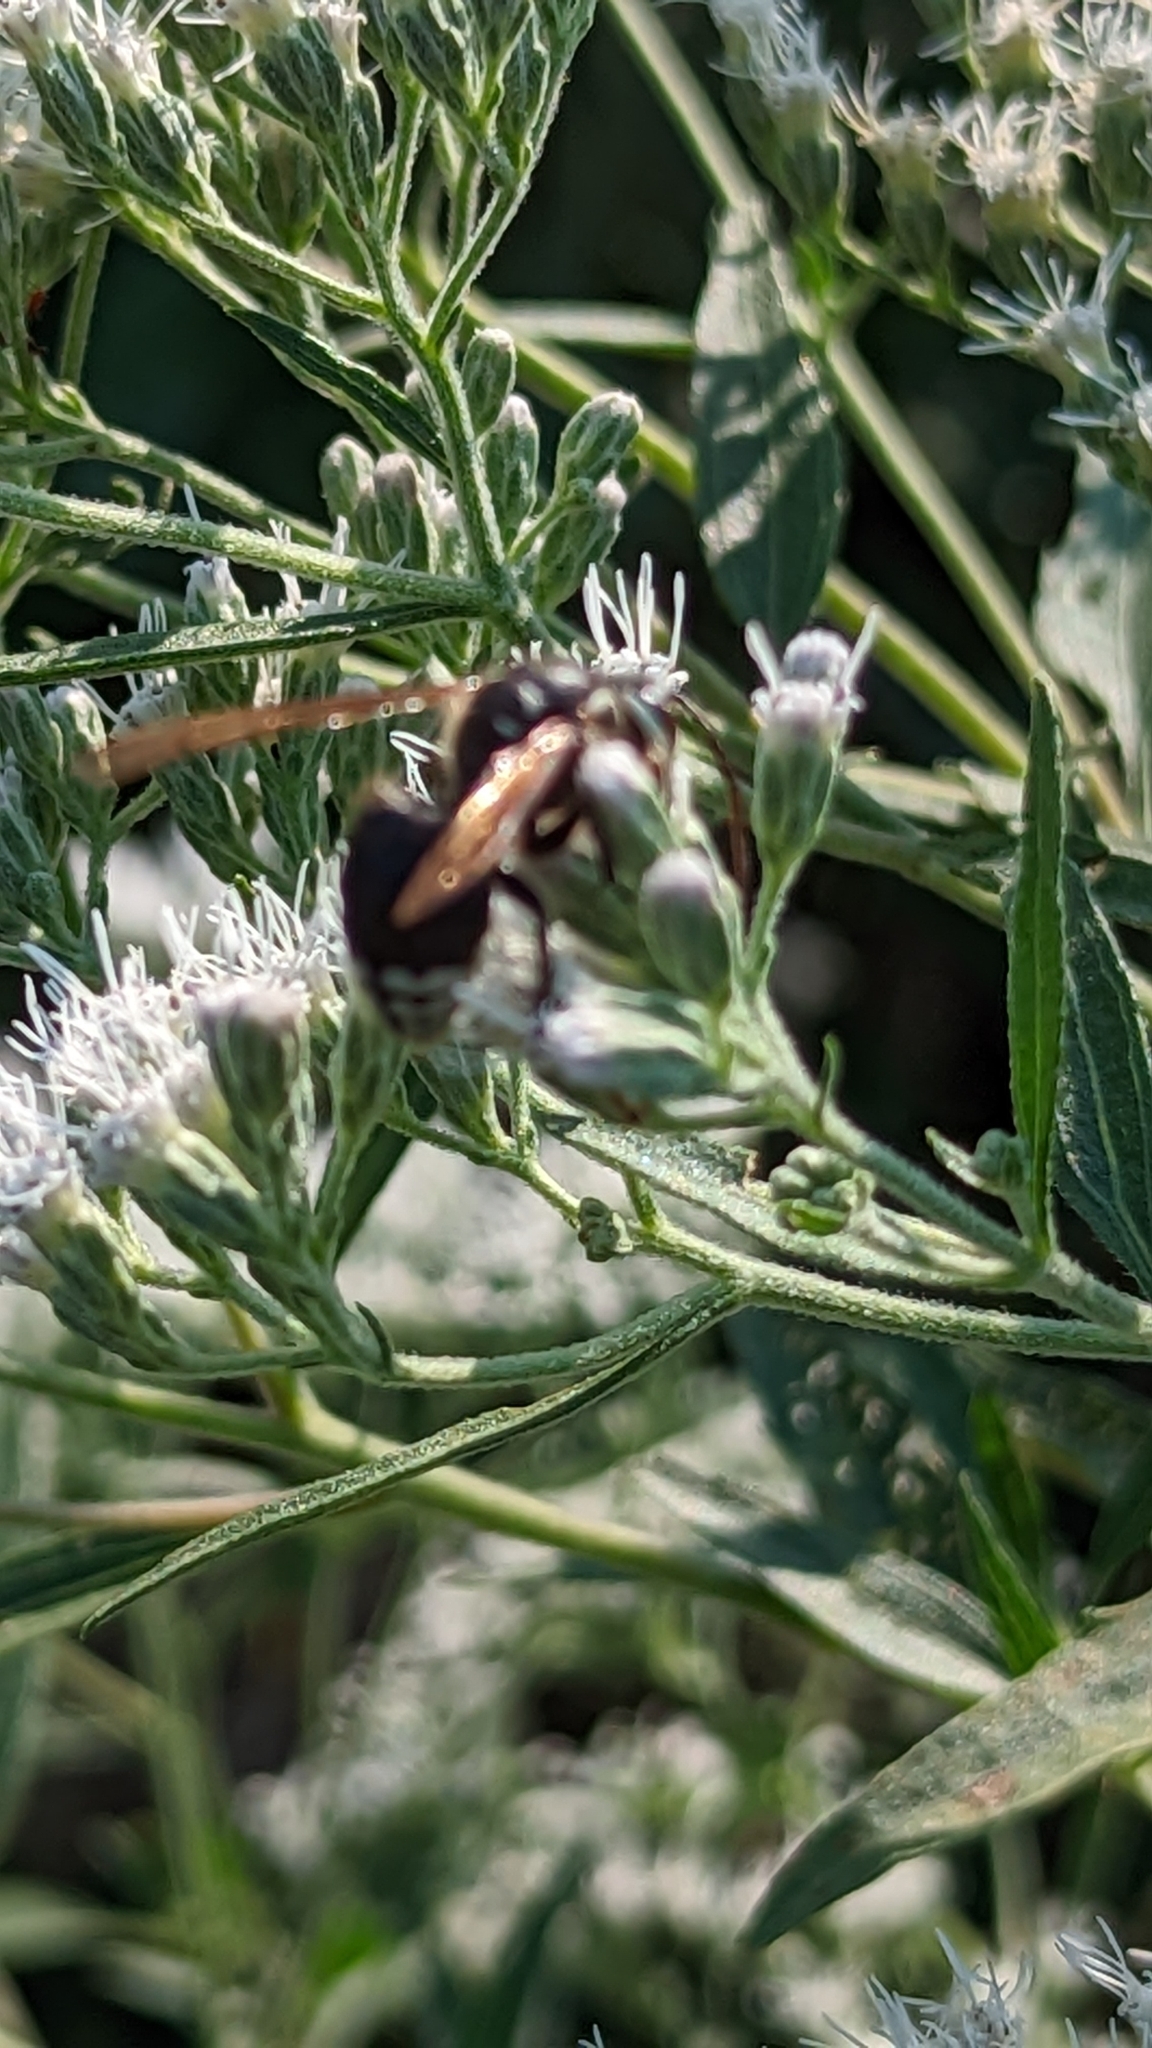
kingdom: Animalia
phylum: Arthropoda
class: Insecta
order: Hymenoptera
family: Vespidae
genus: Dolichovespula
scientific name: Dolichovespula maculata
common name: Bald-faced hornet
